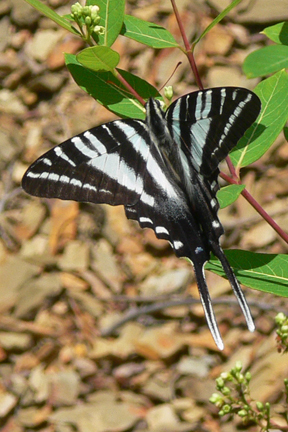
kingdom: Animalia
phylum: Arthropoda
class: Insecta
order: Lepidoptera
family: Papilionidae
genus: Protographium
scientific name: Protographium marcellus
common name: Zebra swallowtail
